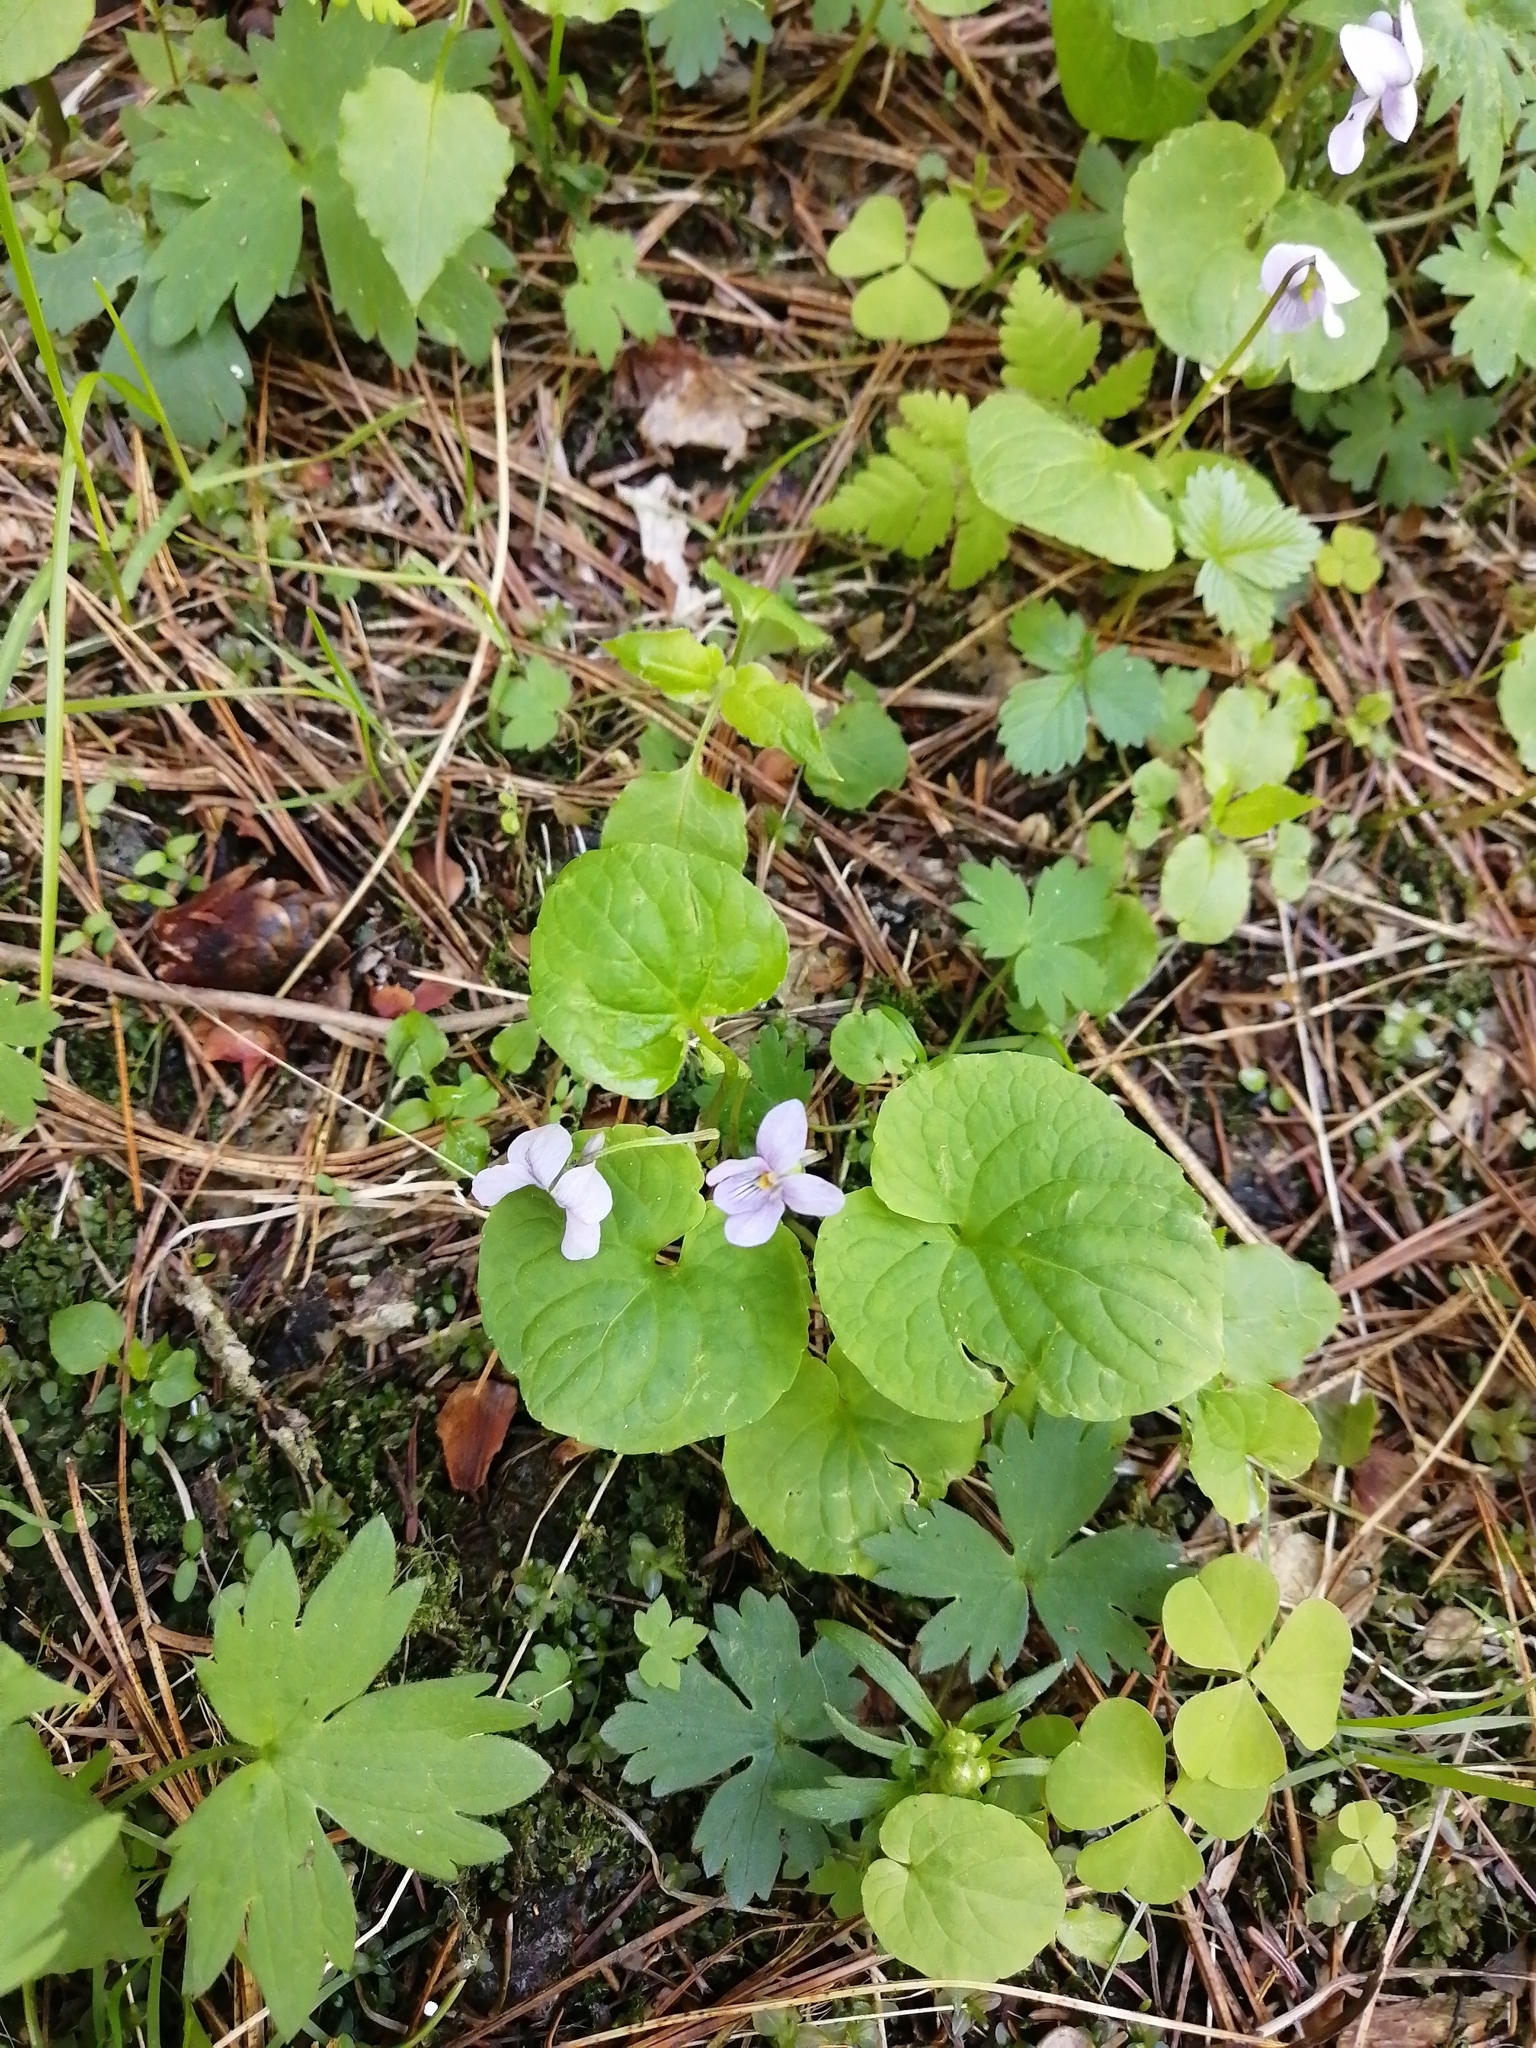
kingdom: Plantae
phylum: Tracheophyta
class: Magnoliopsida
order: Malpighiales
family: Violaceae
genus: Viola
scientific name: Viola epipsila
